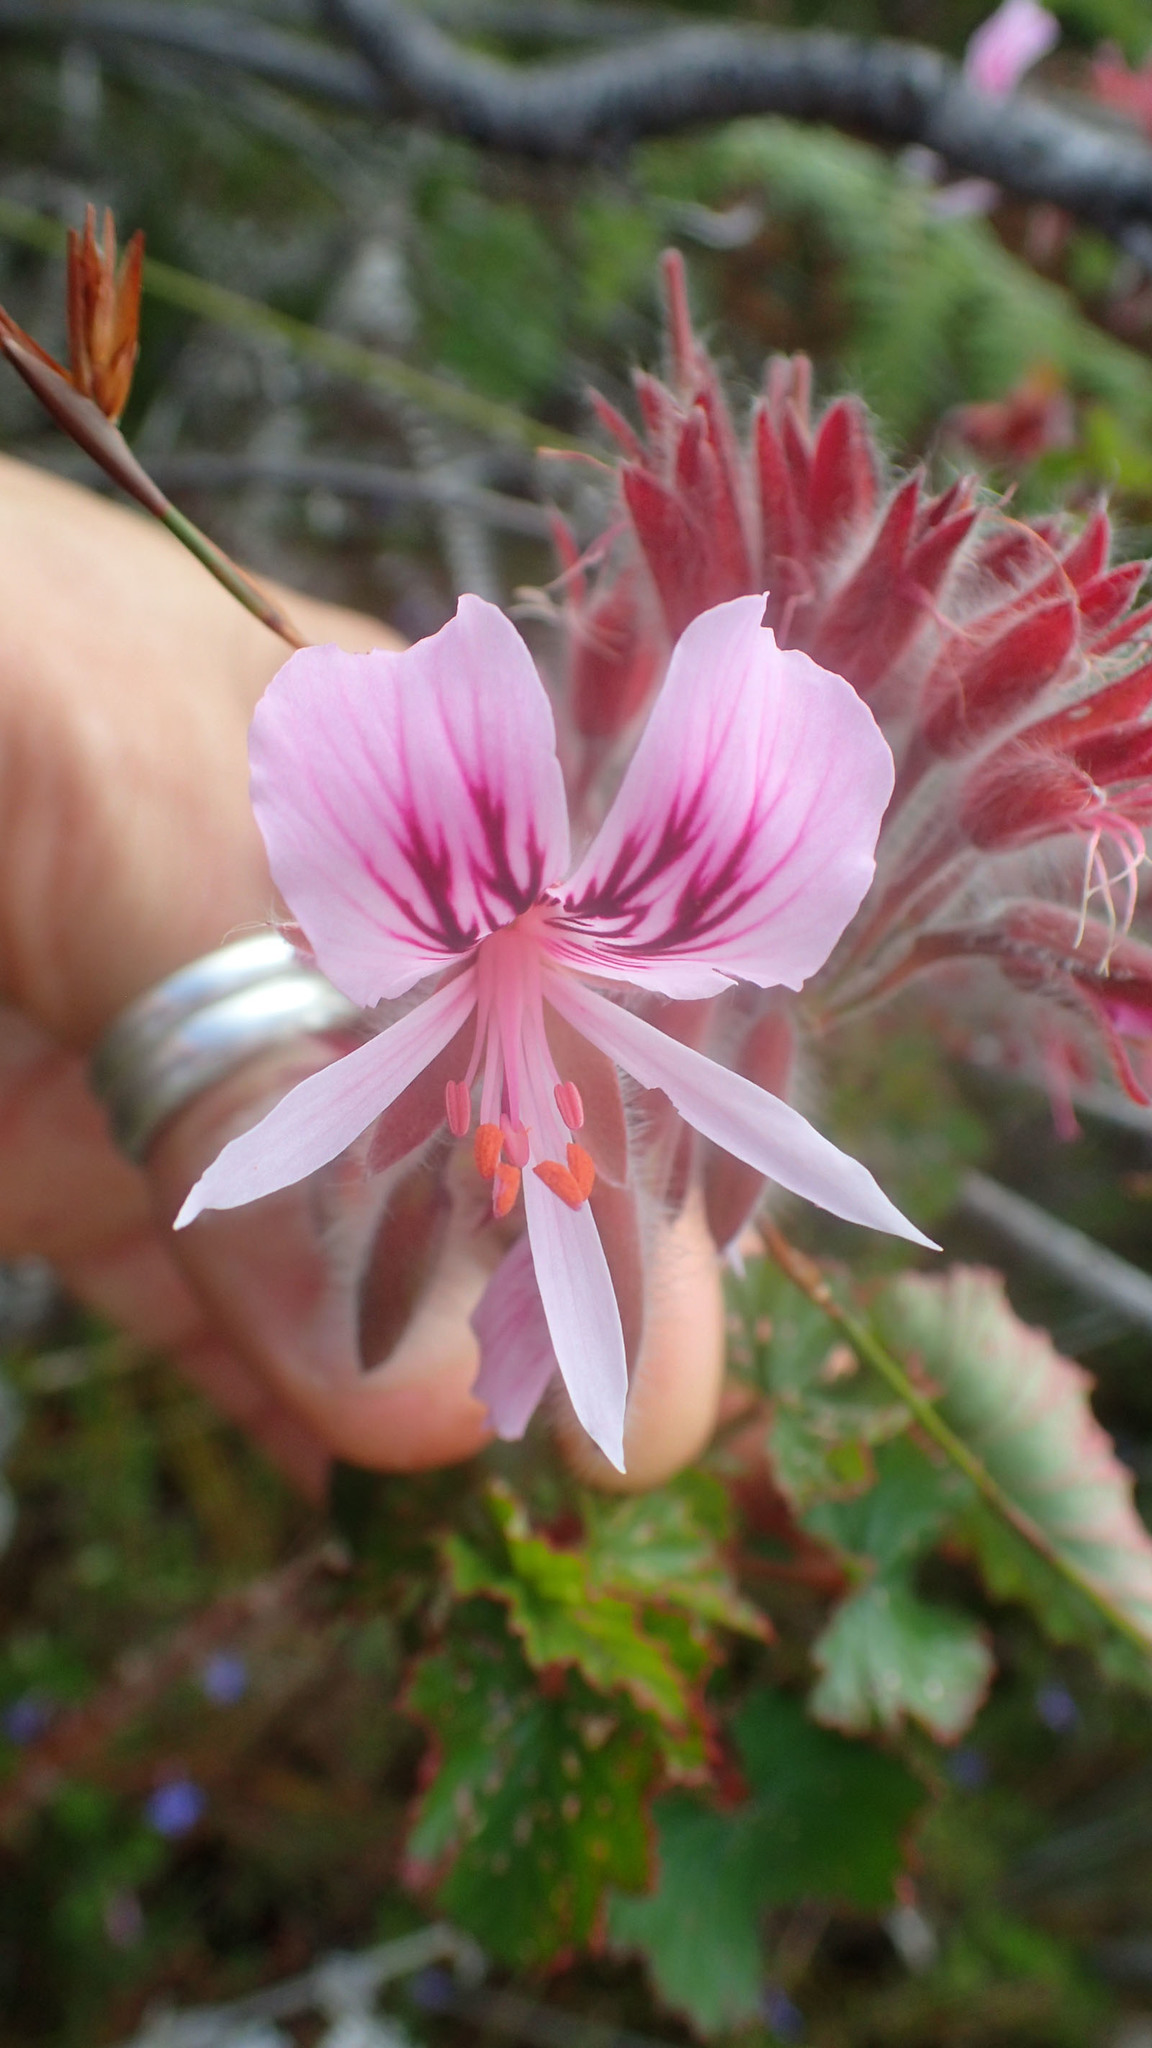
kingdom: Plantae
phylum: Tracheophyta
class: Magnoliopsida
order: Geraniales
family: Geraniaceae
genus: Pelargonium
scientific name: Pelargonium cordifolium
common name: Heart-leaf pelargonium
